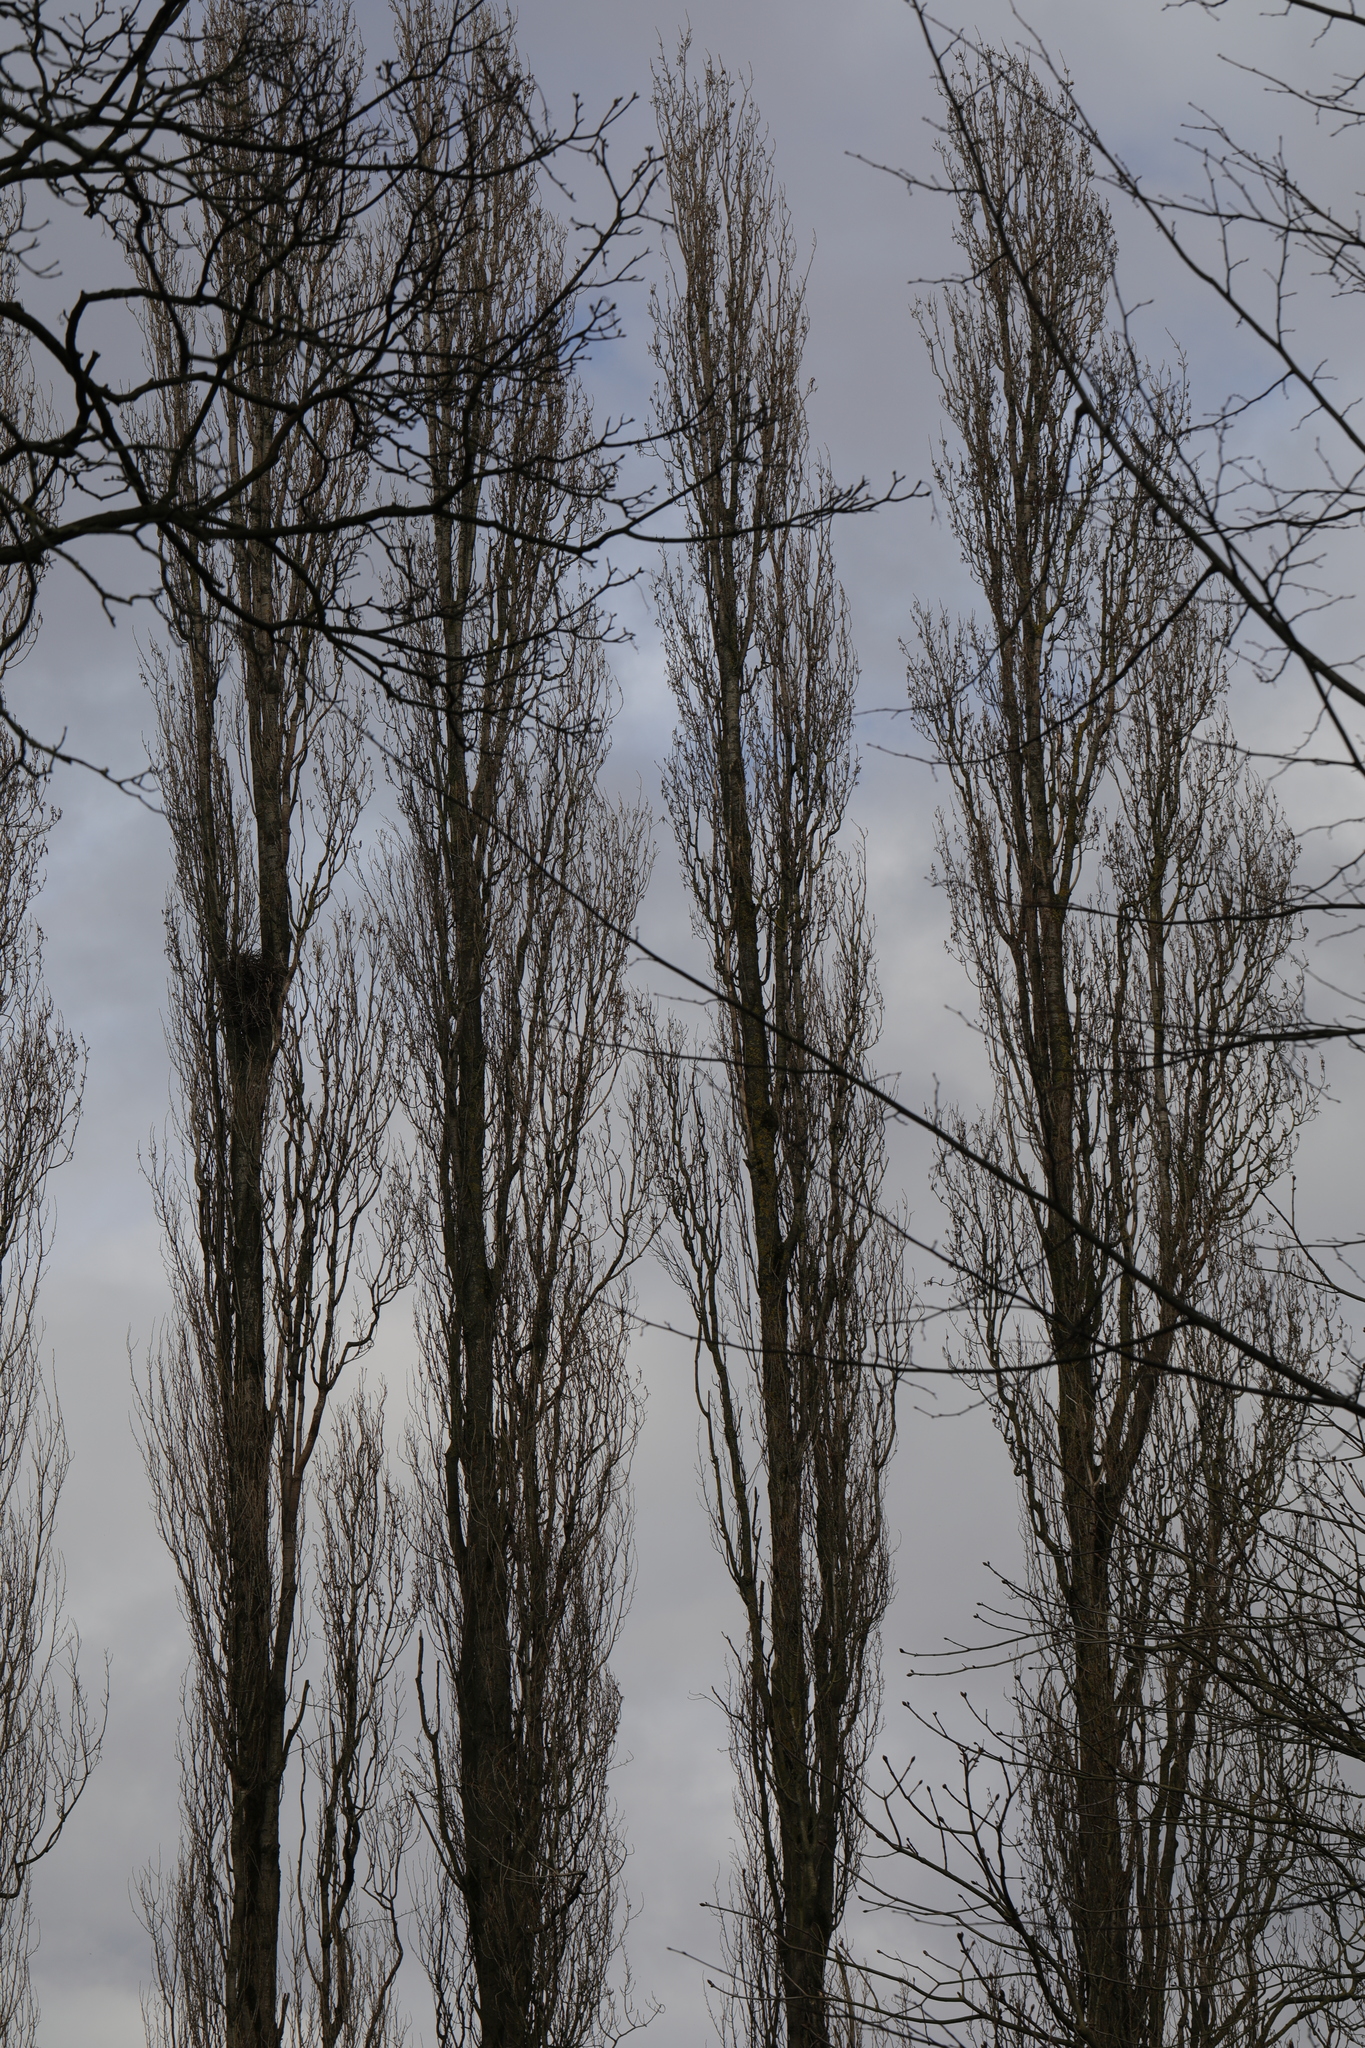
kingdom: Plantae
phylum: Tracheophyta
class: Magnoliopsida
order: Malpighiales
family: Salicaceae
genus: Populus
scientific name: Populus nigra
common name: Black poplar
